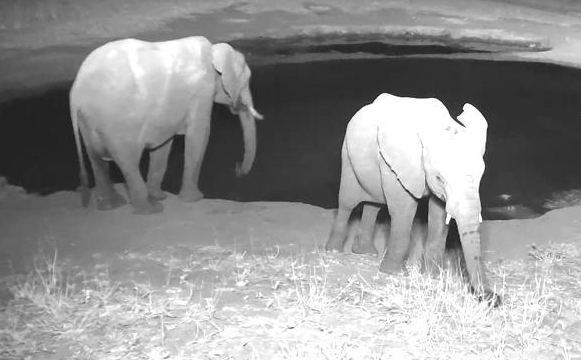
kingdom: Animalia
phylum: Chordata
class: Mammalia
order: Proboscidea
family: Elephantidae
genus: Loxodonta
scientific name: Loxodonta africana
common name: African elephant
